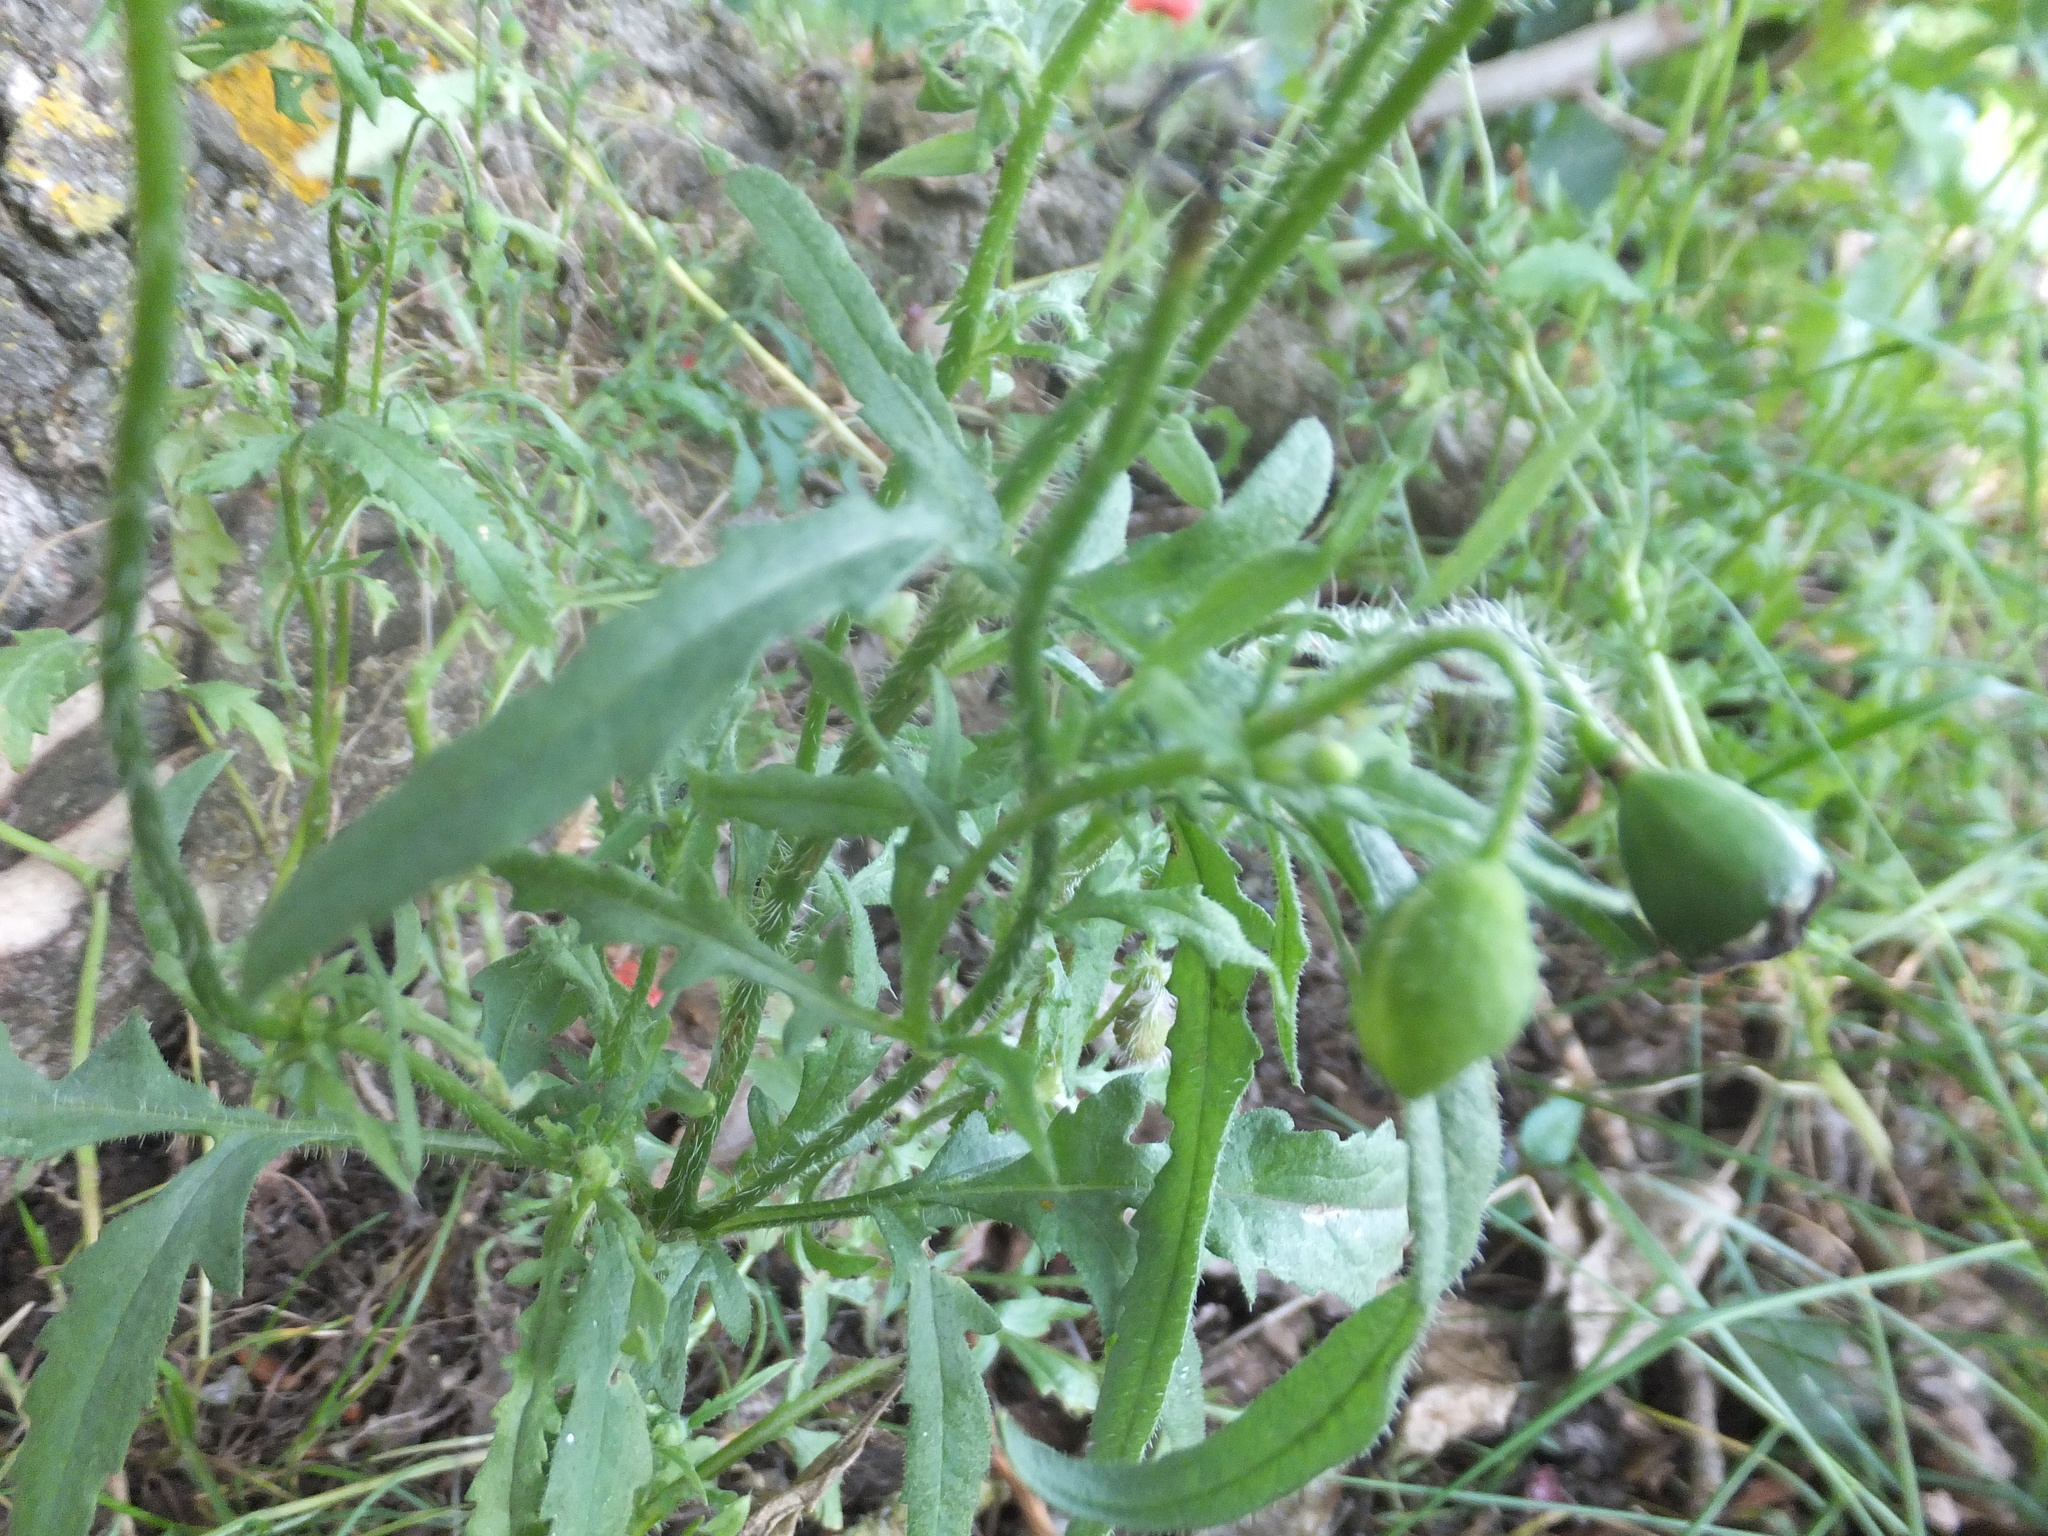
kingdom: Plantae
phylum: Tracheophyta
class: Magnoliopsida
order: Ranunculales
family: Papaveraceae
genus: Papaver
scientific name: Papaver rhoeas
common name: Corn poppy
